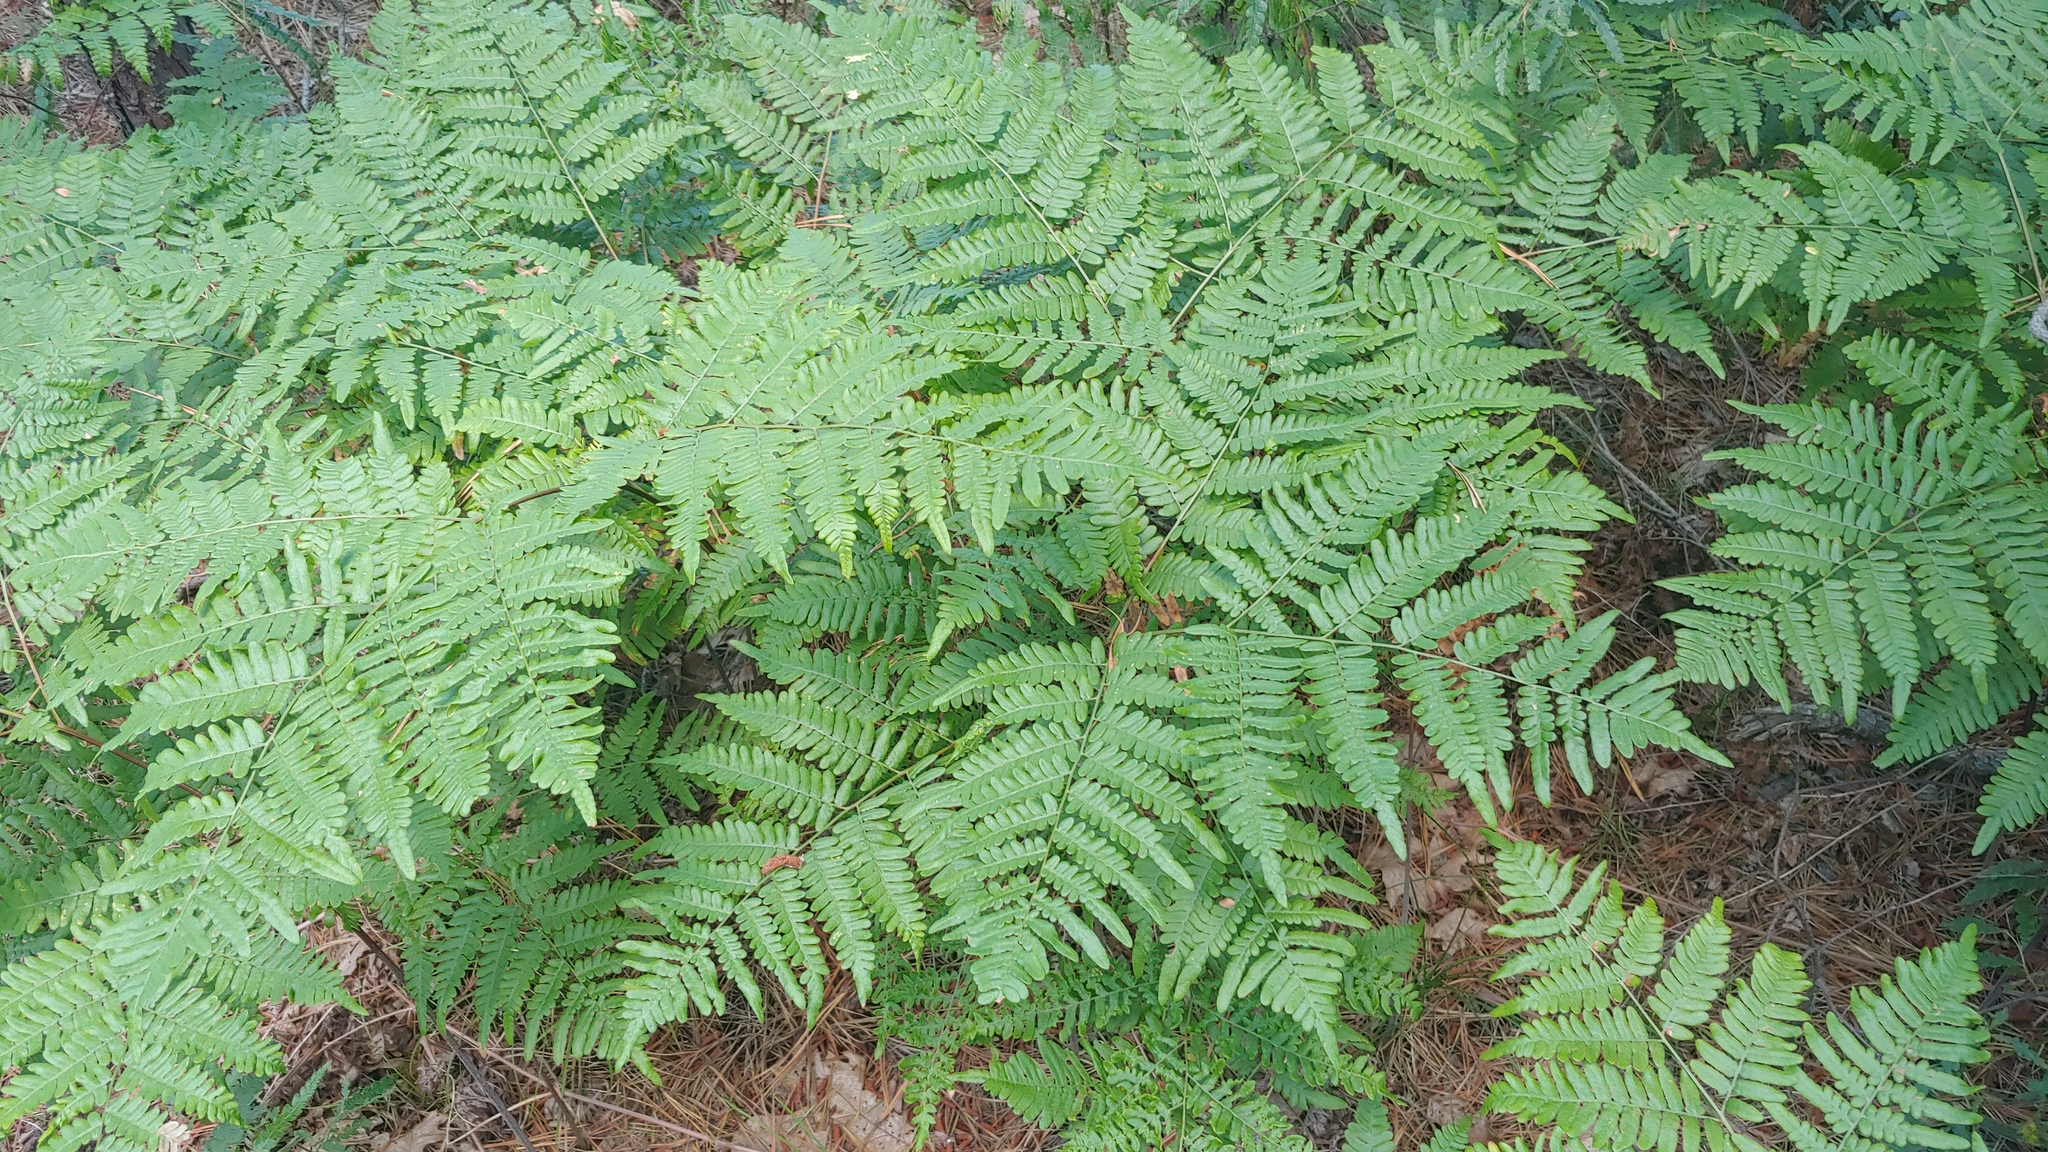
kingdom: Plantae
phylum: Tracheophyta
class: Polypodiopsida
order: Polypodiales
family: Dennstaedtiaceae
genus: Pteridium
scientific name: Pteridium aquilinum
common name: Bracken
